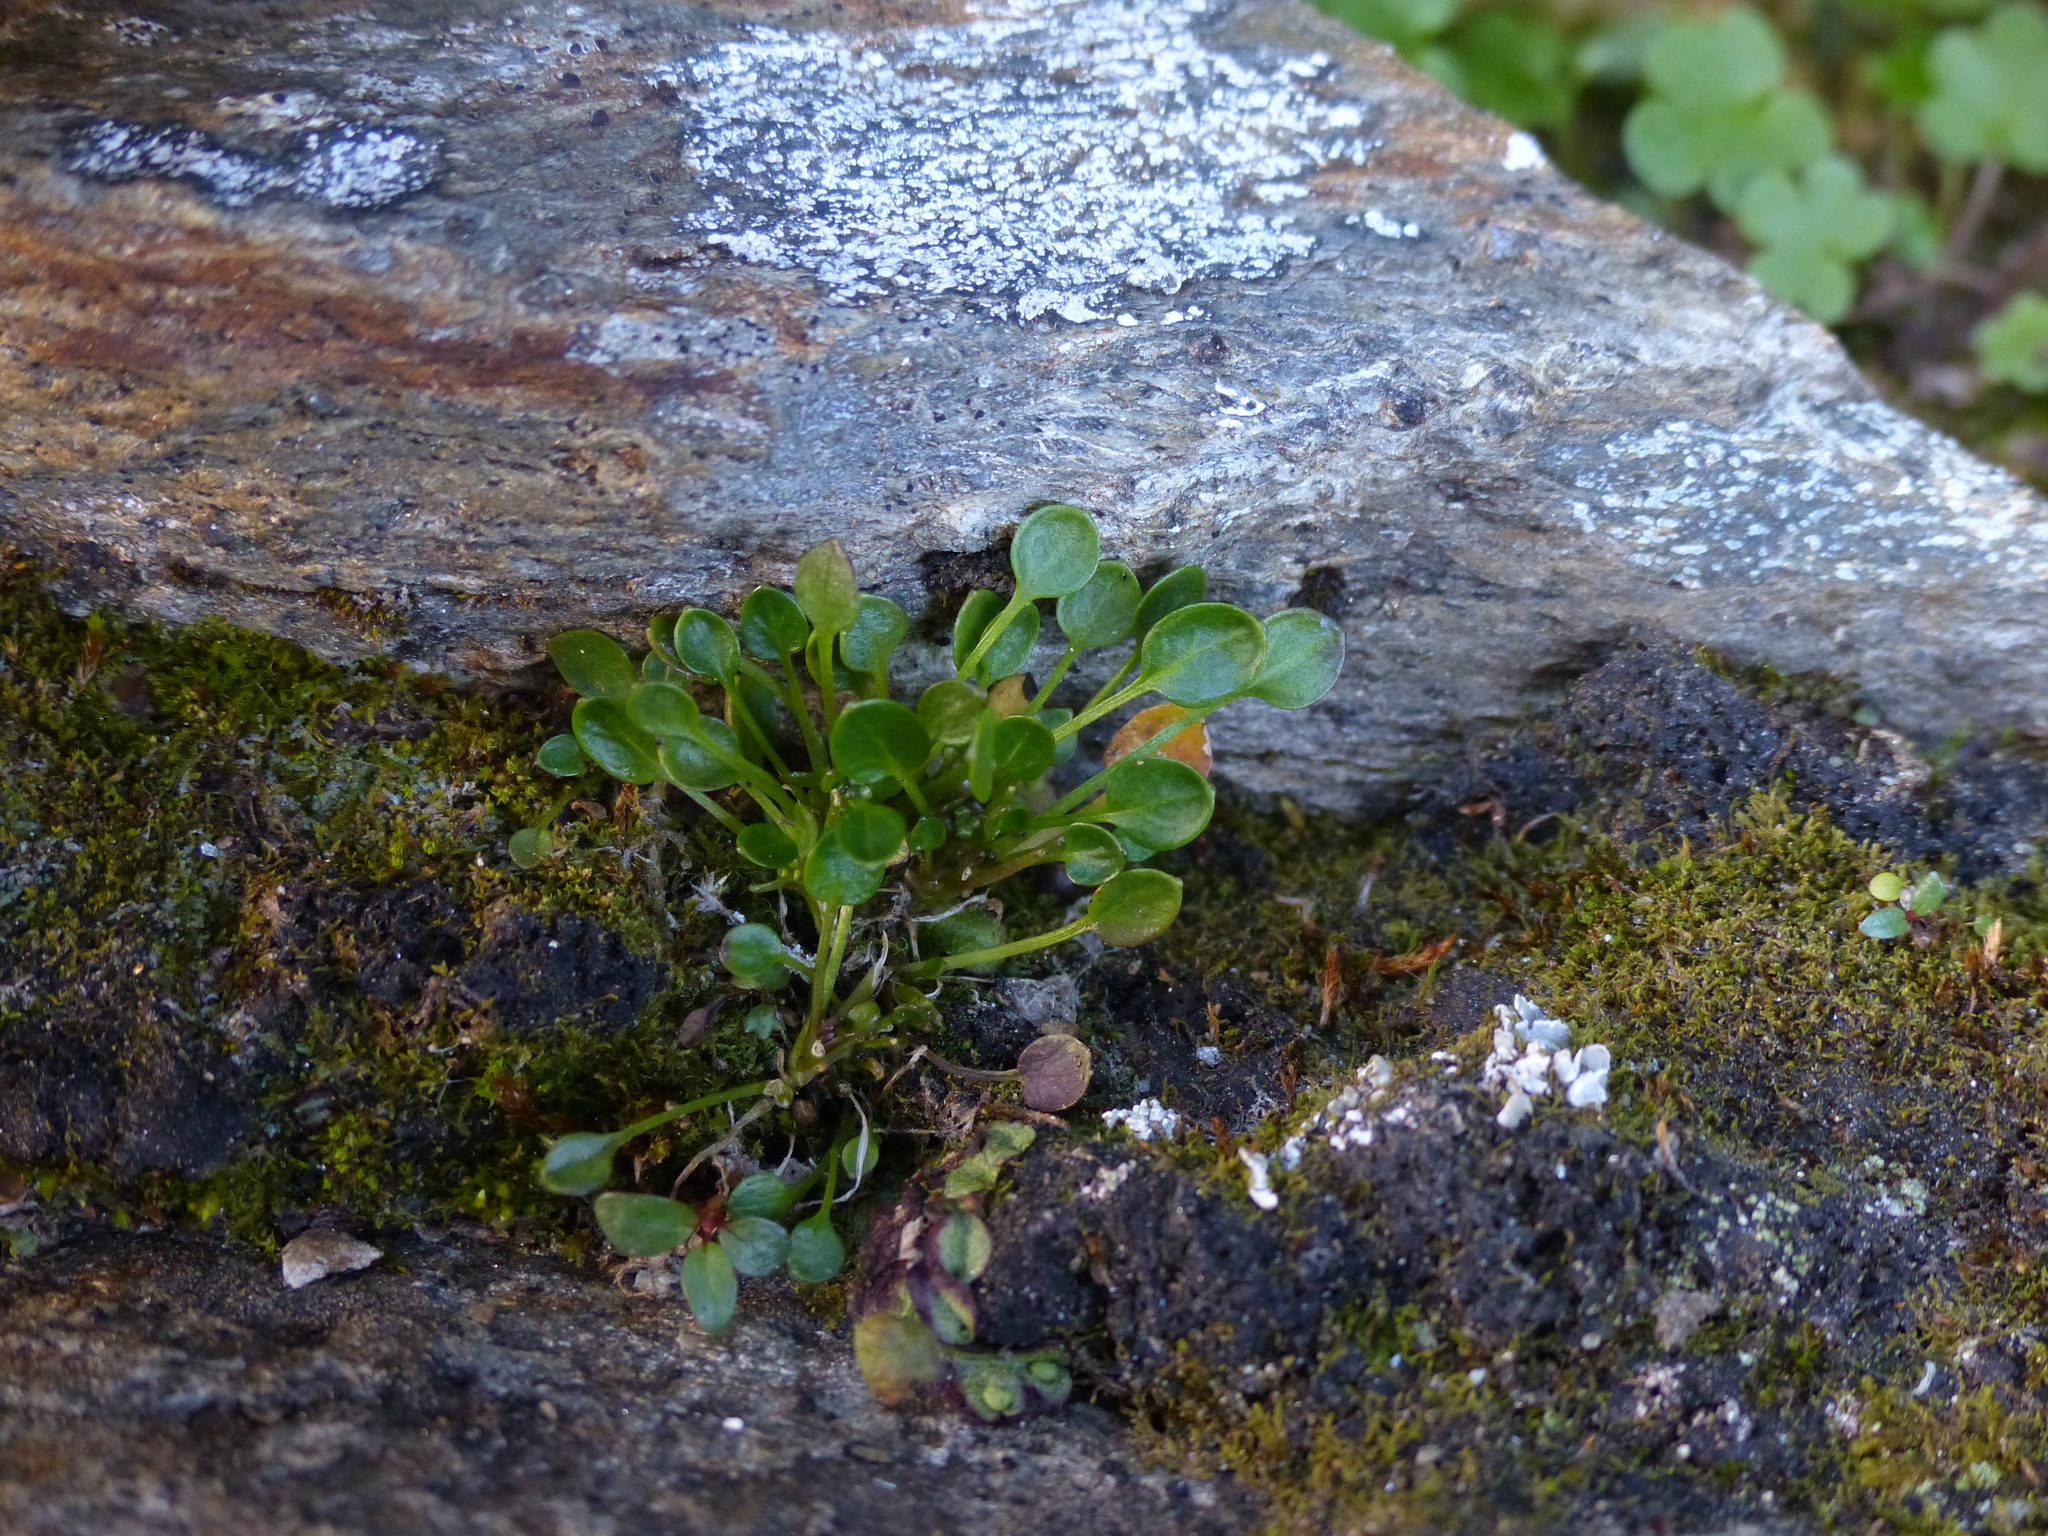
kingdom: Plantae
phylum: Tracheophyta
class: Magnoliopsida
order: Brassicales
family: Brassicaceae
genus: Cardamine
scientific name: Cardamine bellidifolia
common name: Alpine bittercress
